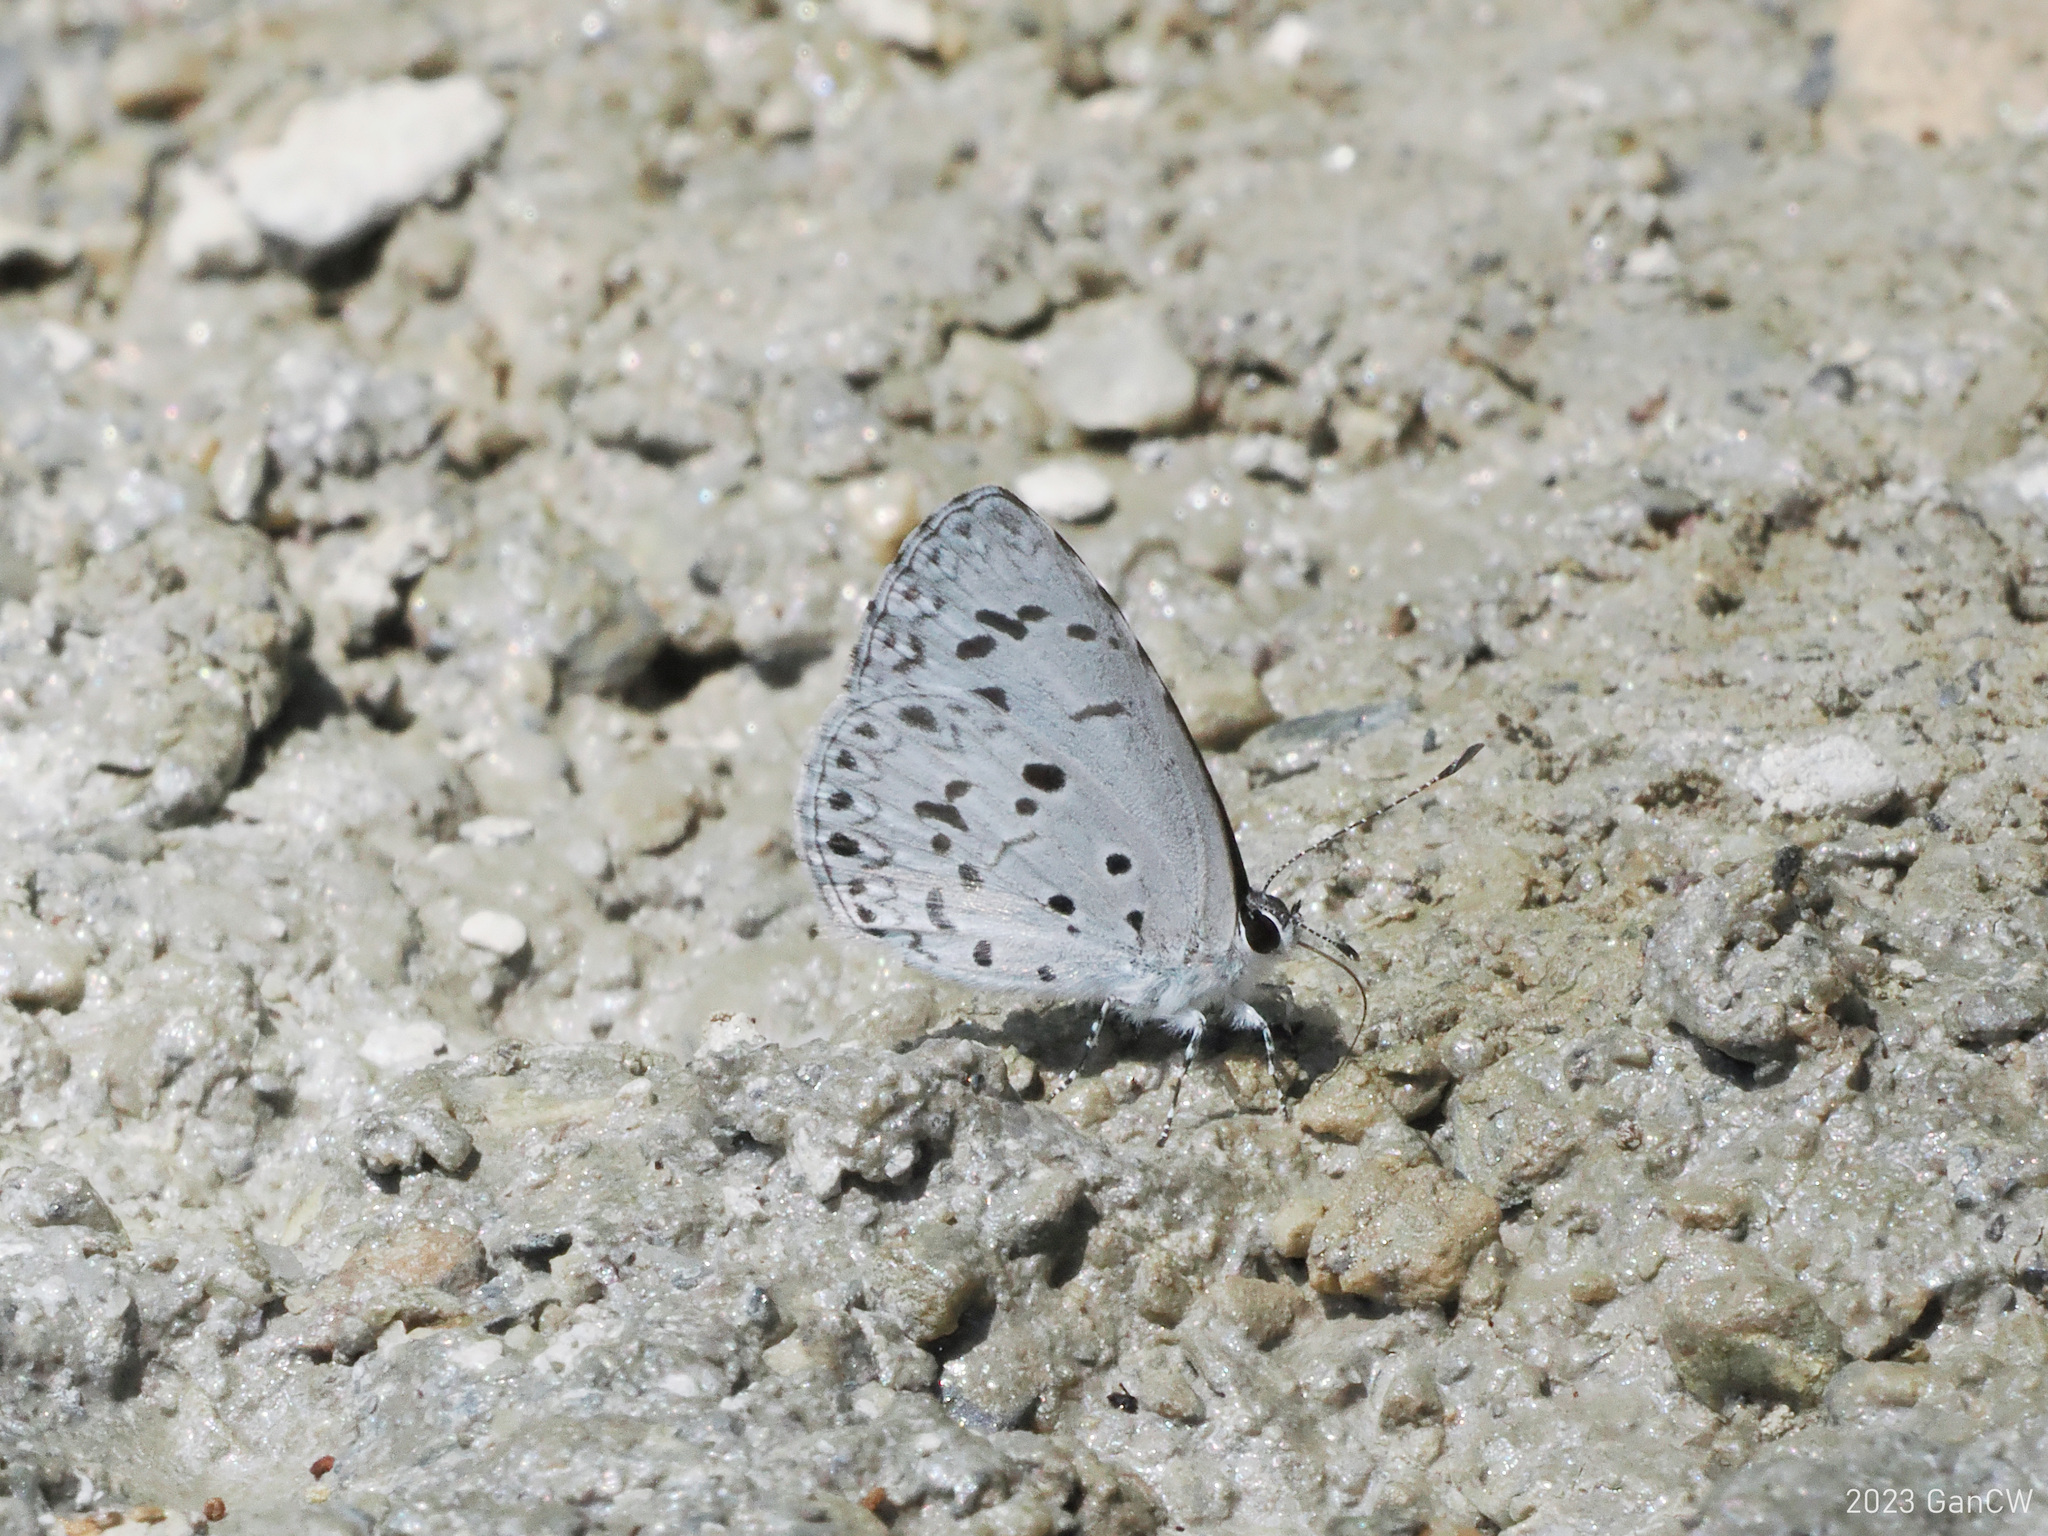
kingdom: Animalia
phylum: Arthropoda
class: Insecta
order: Lepidoptera
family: Lycaenidae
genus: Acytolepis
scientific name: Acytolepis puspa
